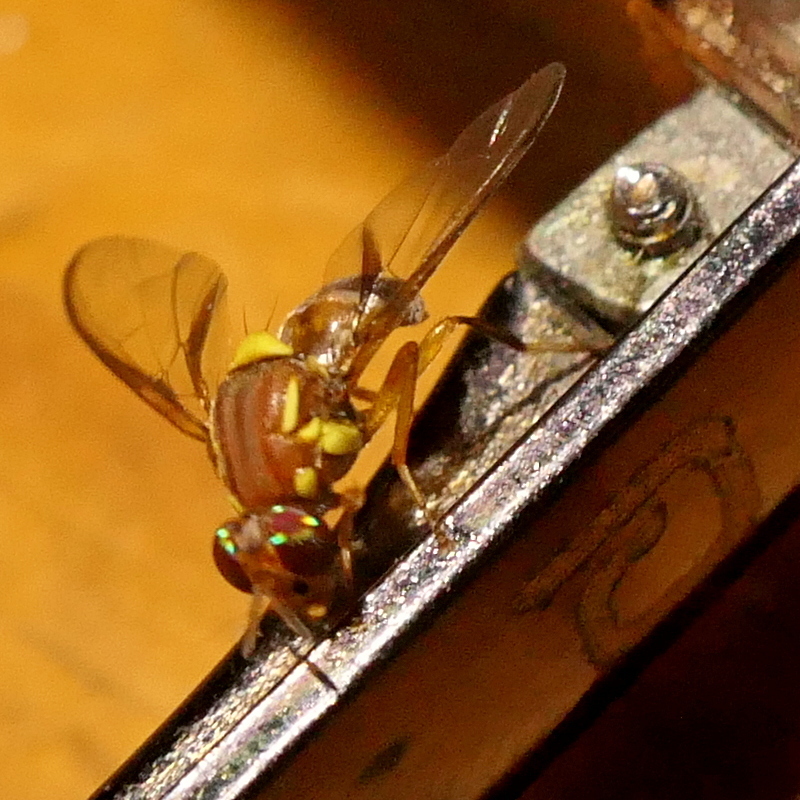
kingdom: Animalia
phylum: Arthropoda
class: Insecta
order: Diptera
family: Tephritidae
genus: Bactrocera
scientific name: Bactrocera tryoni
